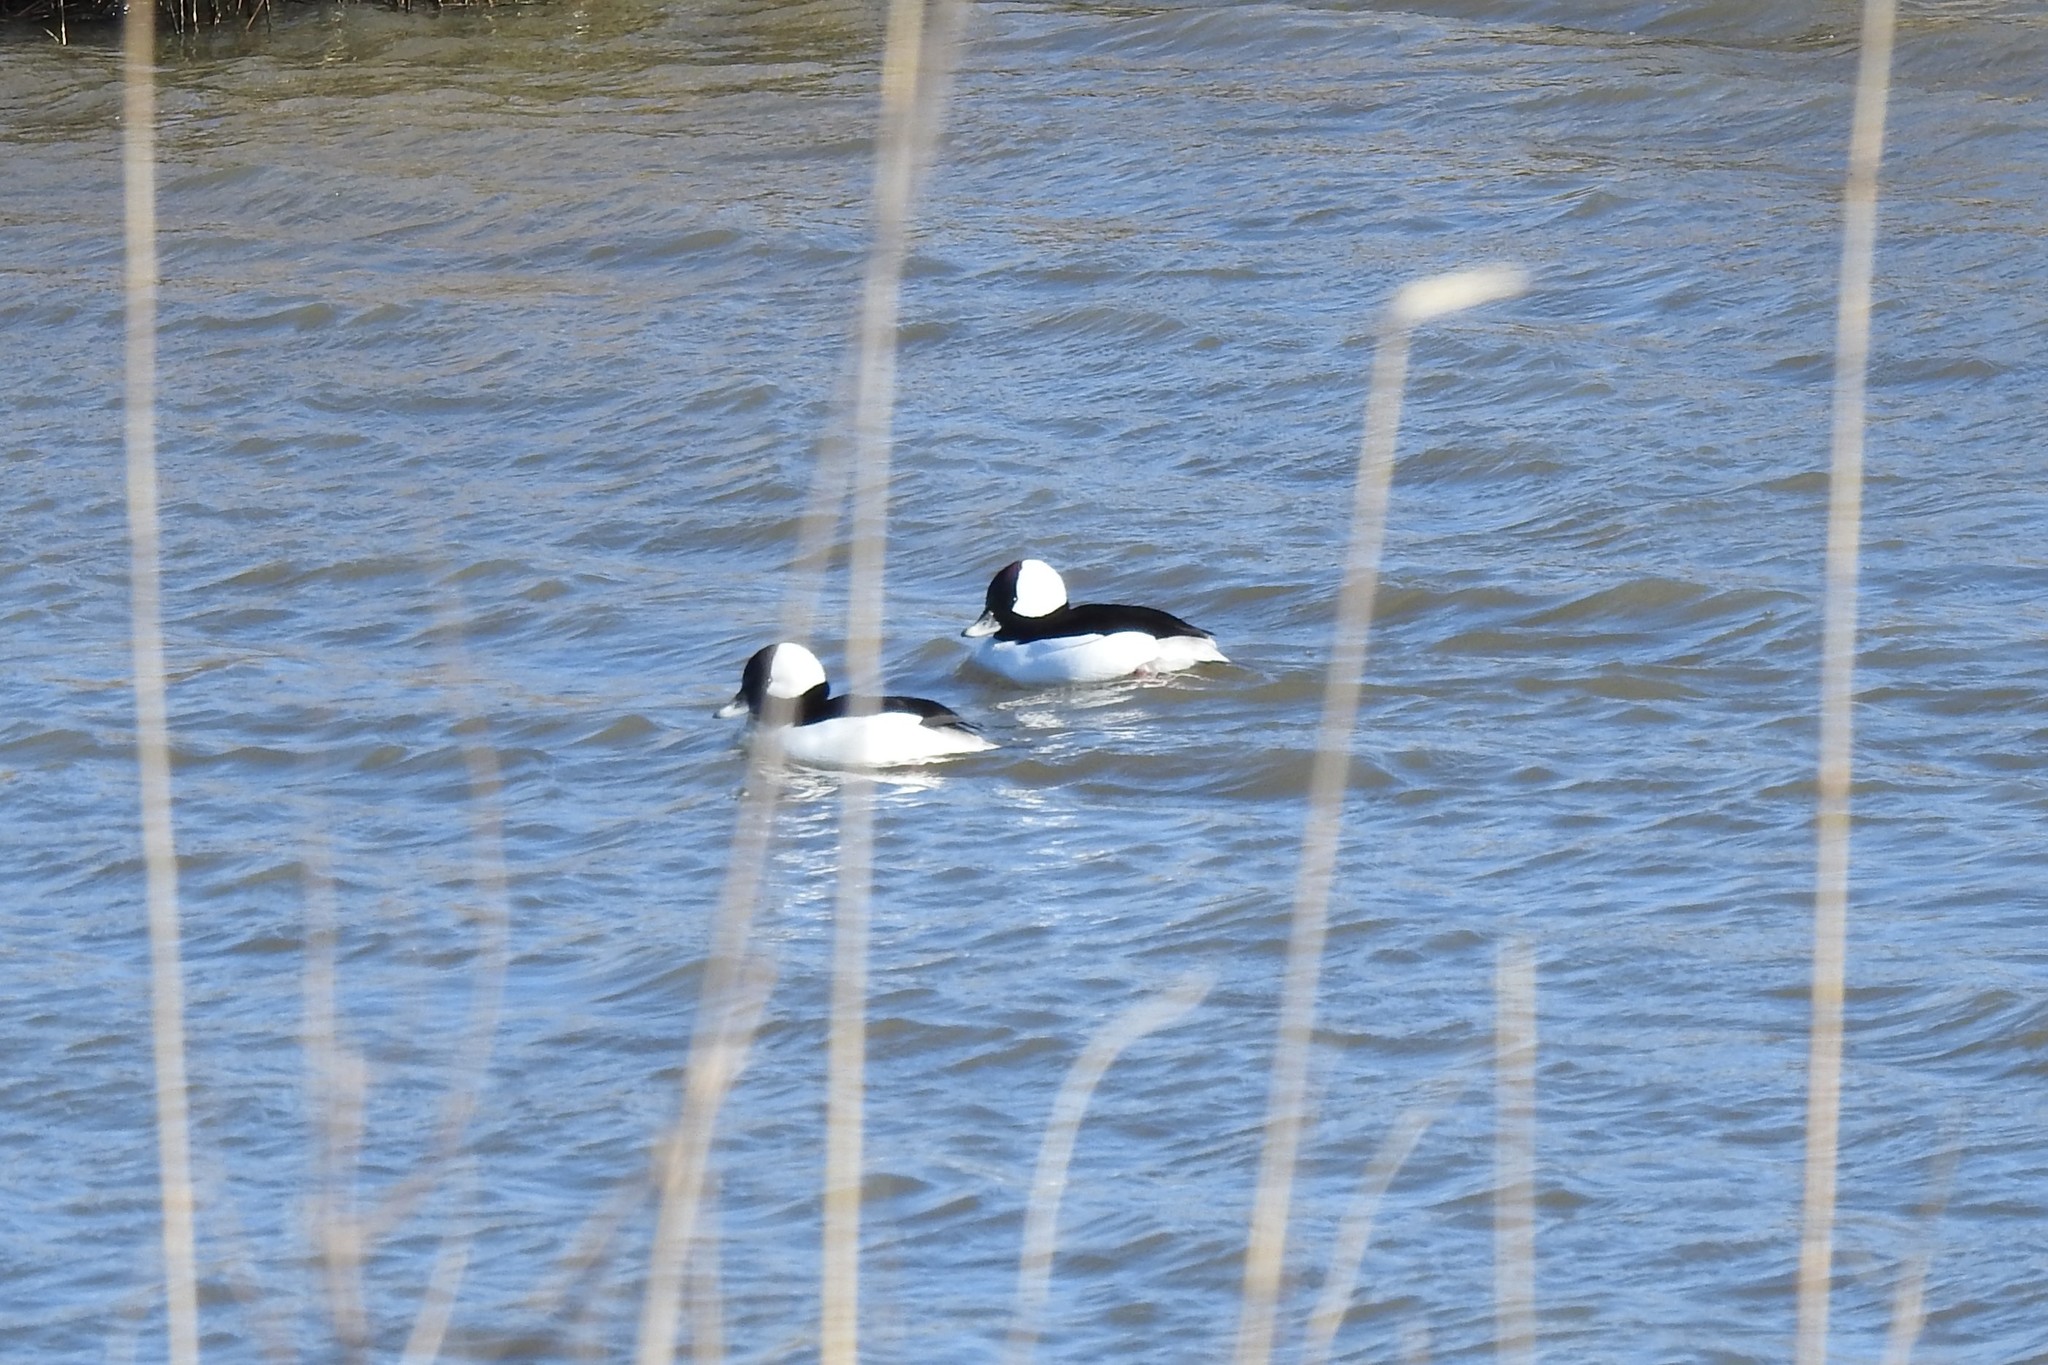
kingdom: Animalia
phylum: Chordata
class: Aves
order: Anseriformes
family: Anatidae
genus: Bucephala
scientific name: Bucephala albeola
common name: Bufflehead
